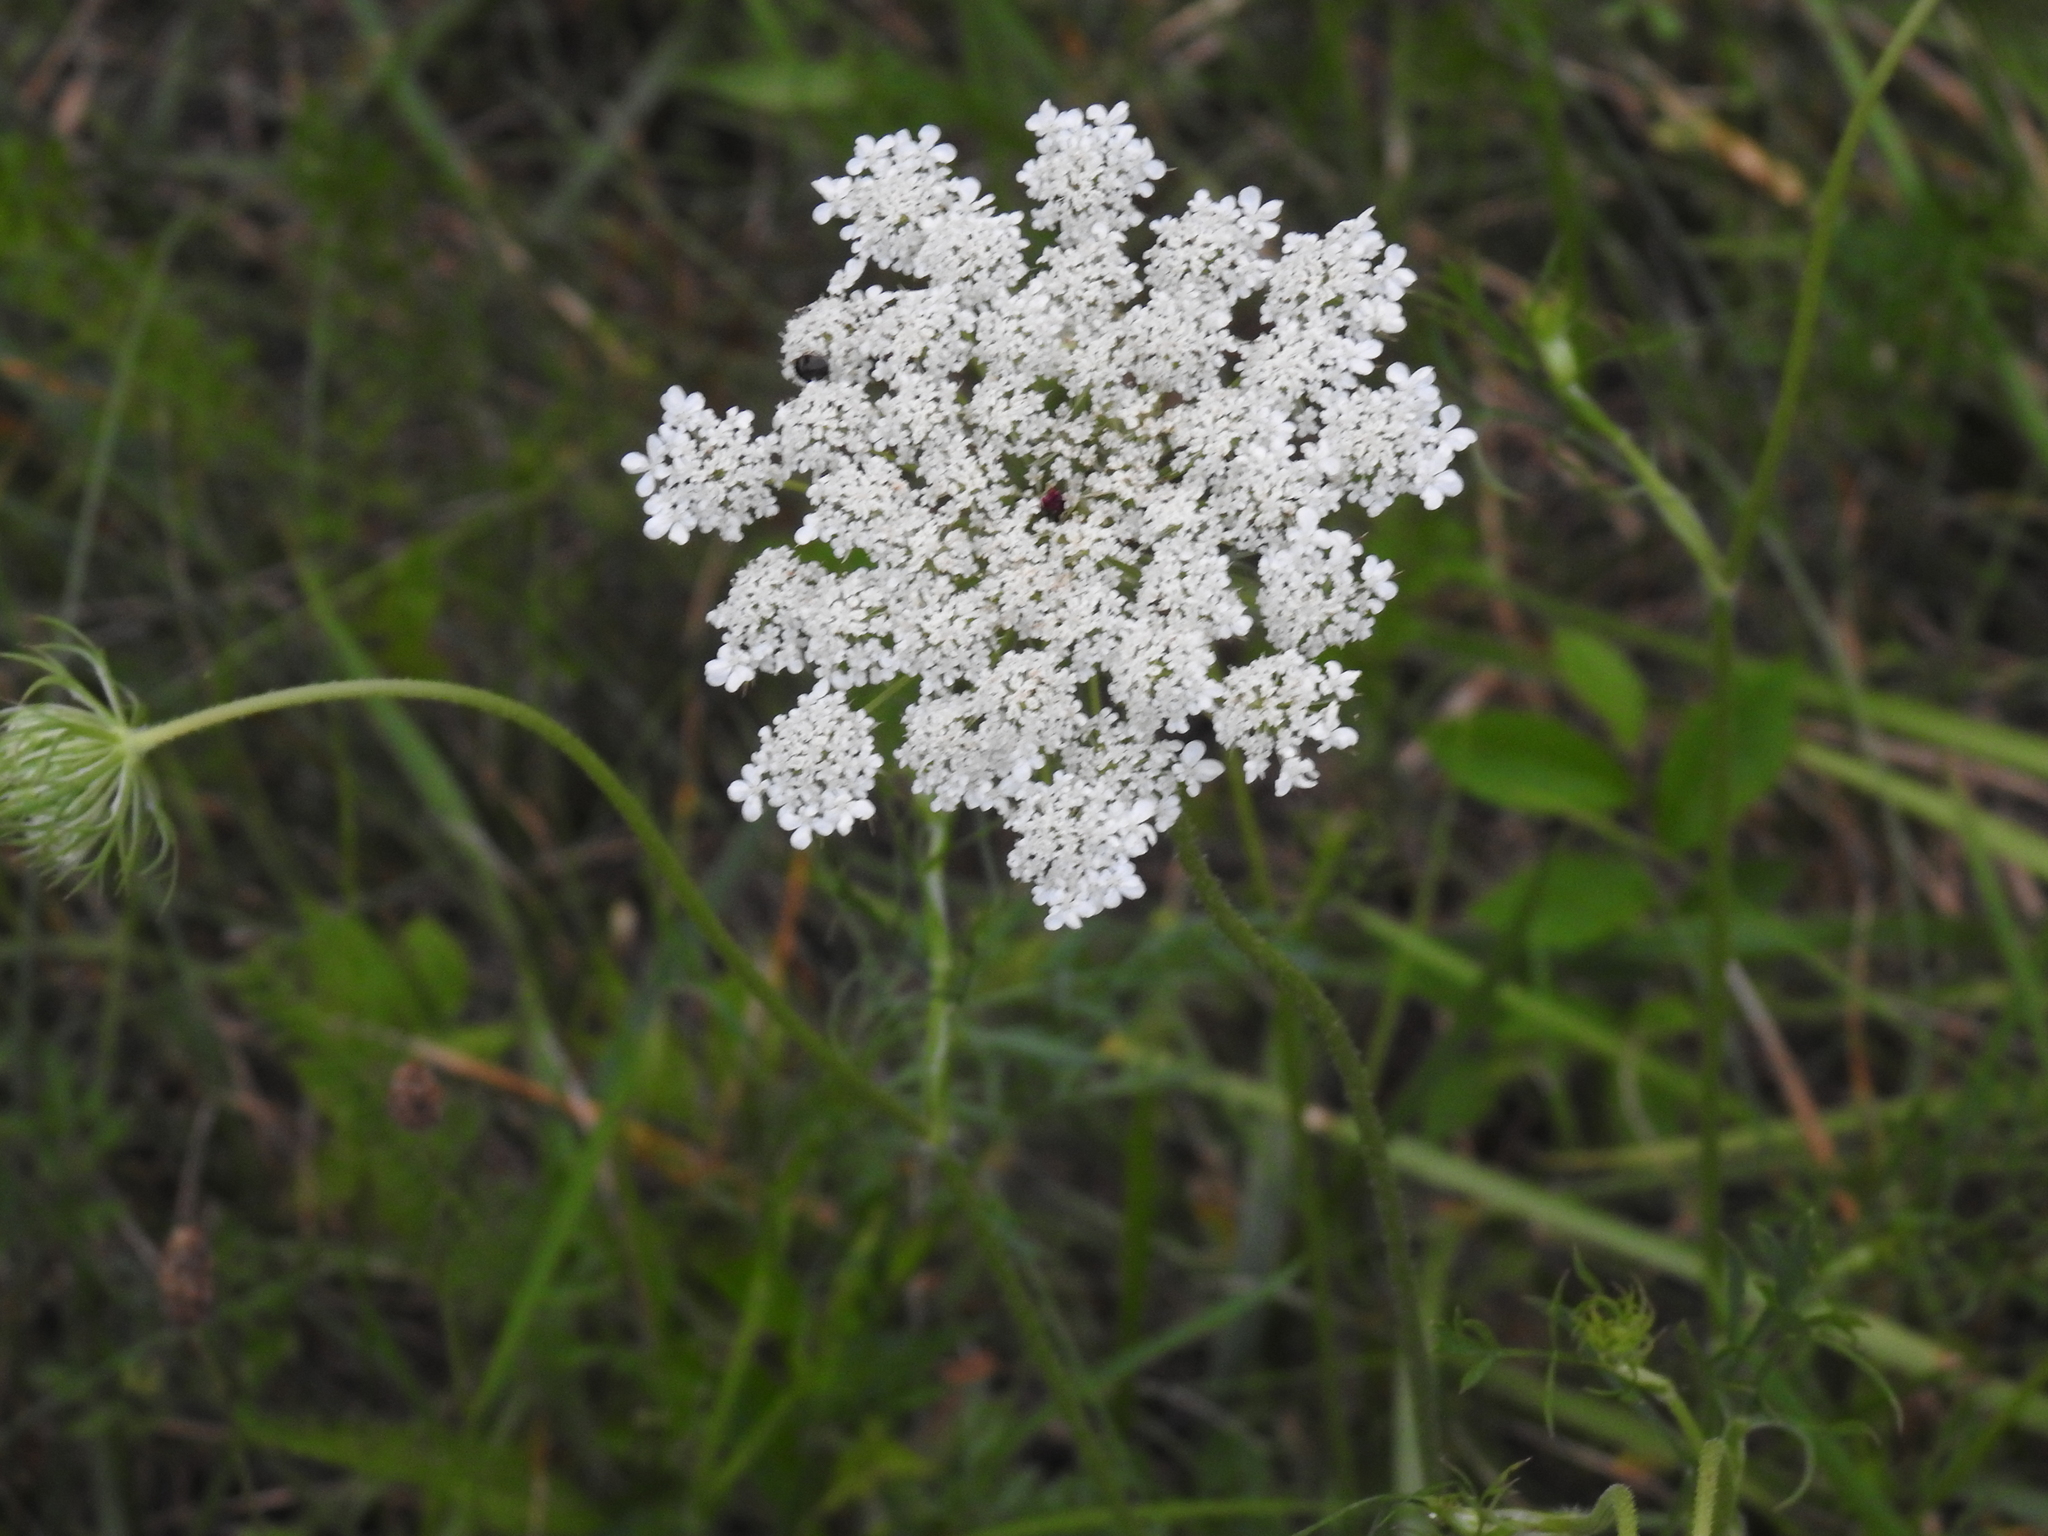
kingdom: Plantae
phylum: Tracheophyta
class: Magnoliopsida
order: Apiales
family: Apiaceae
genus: Daucus
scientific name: Daucus carota
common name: Wild carrot
